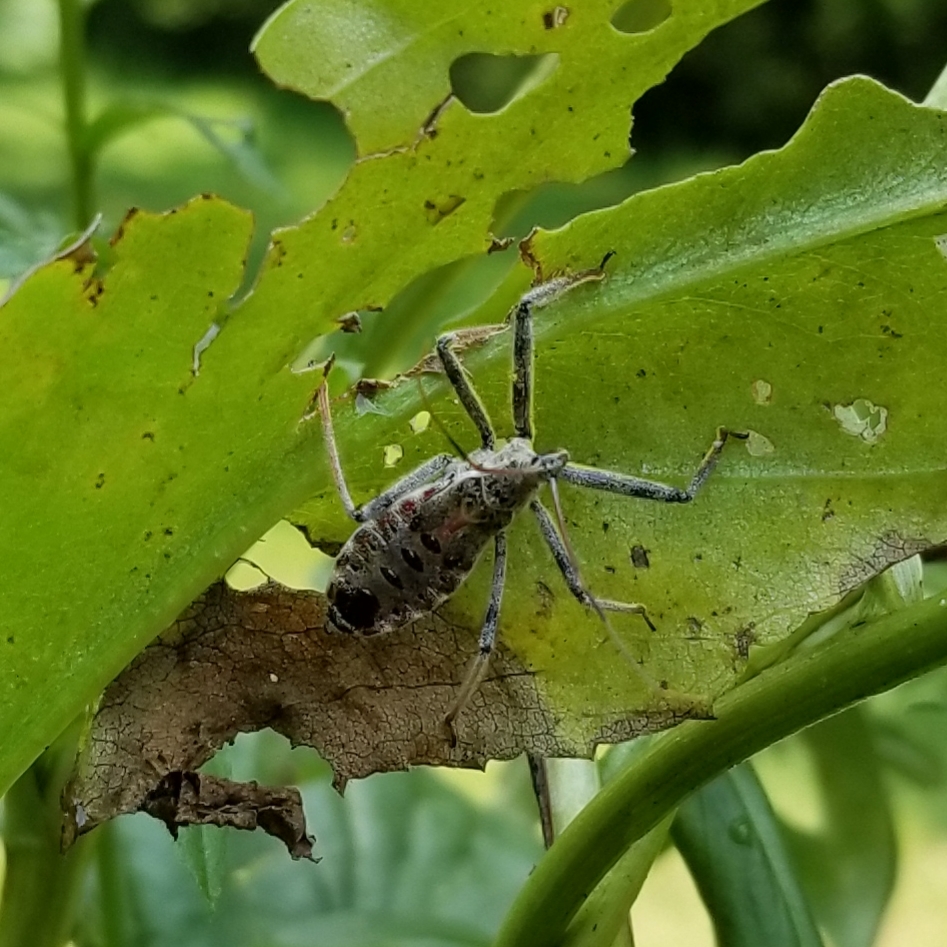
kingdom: Animalia
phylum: Arthropoda
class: Insecta
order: Hemiptera
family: Reduviidae
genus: Arilus
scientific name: Arilus cristatus
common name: North american wheel bug
